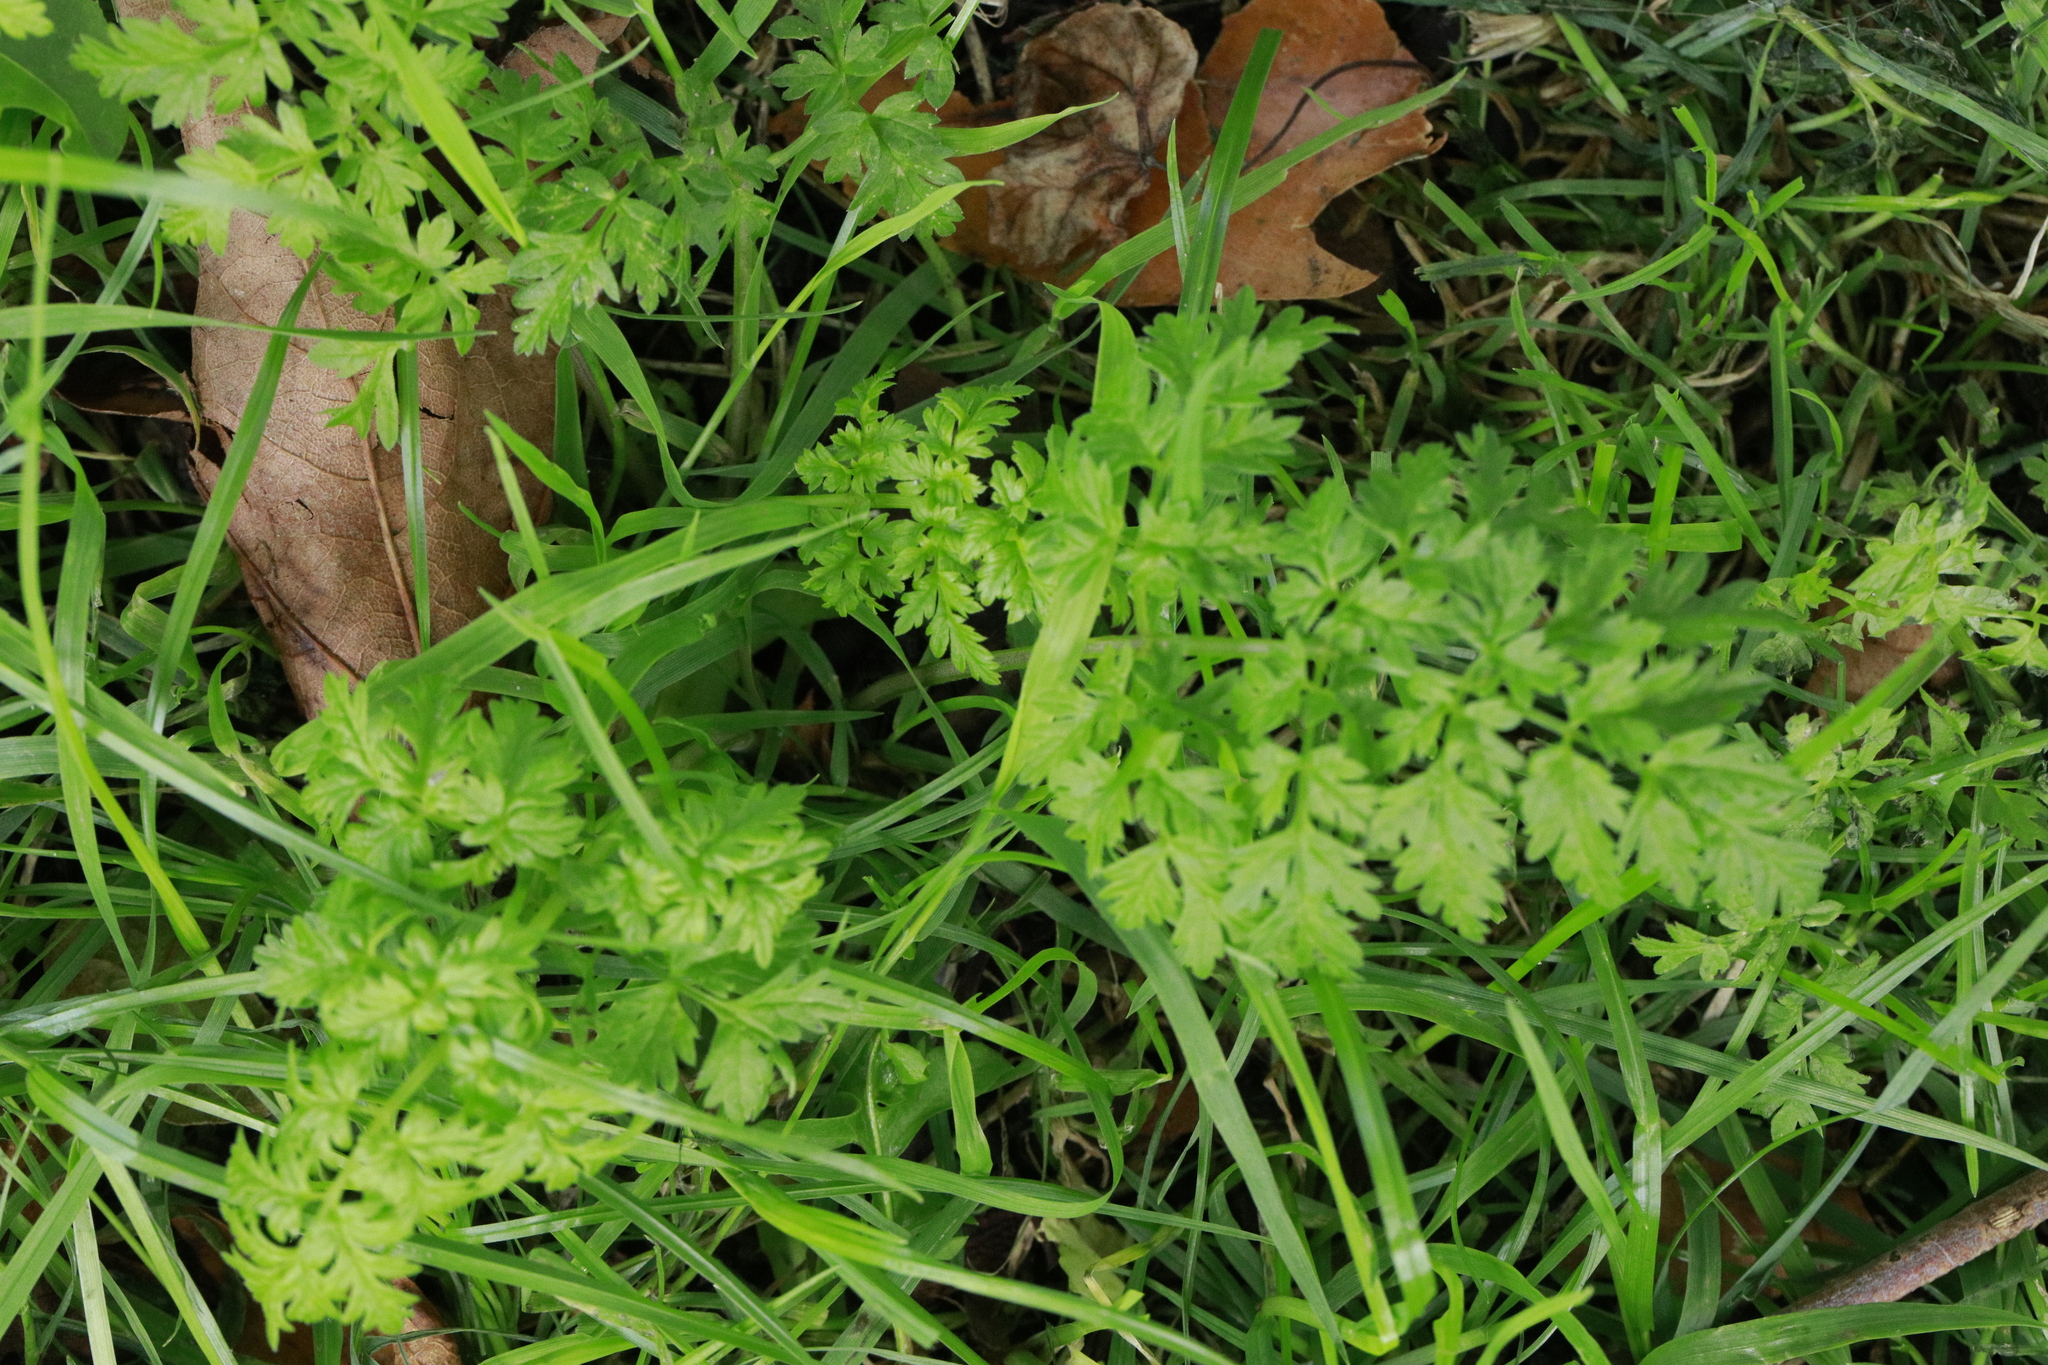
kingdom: Plantae
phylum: Tracheophyta
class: Magnoliopsida
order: Apiales
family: Apiaceae
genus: Anthriscus
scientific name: Anthriscus sylvestris
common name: Cow parsley
